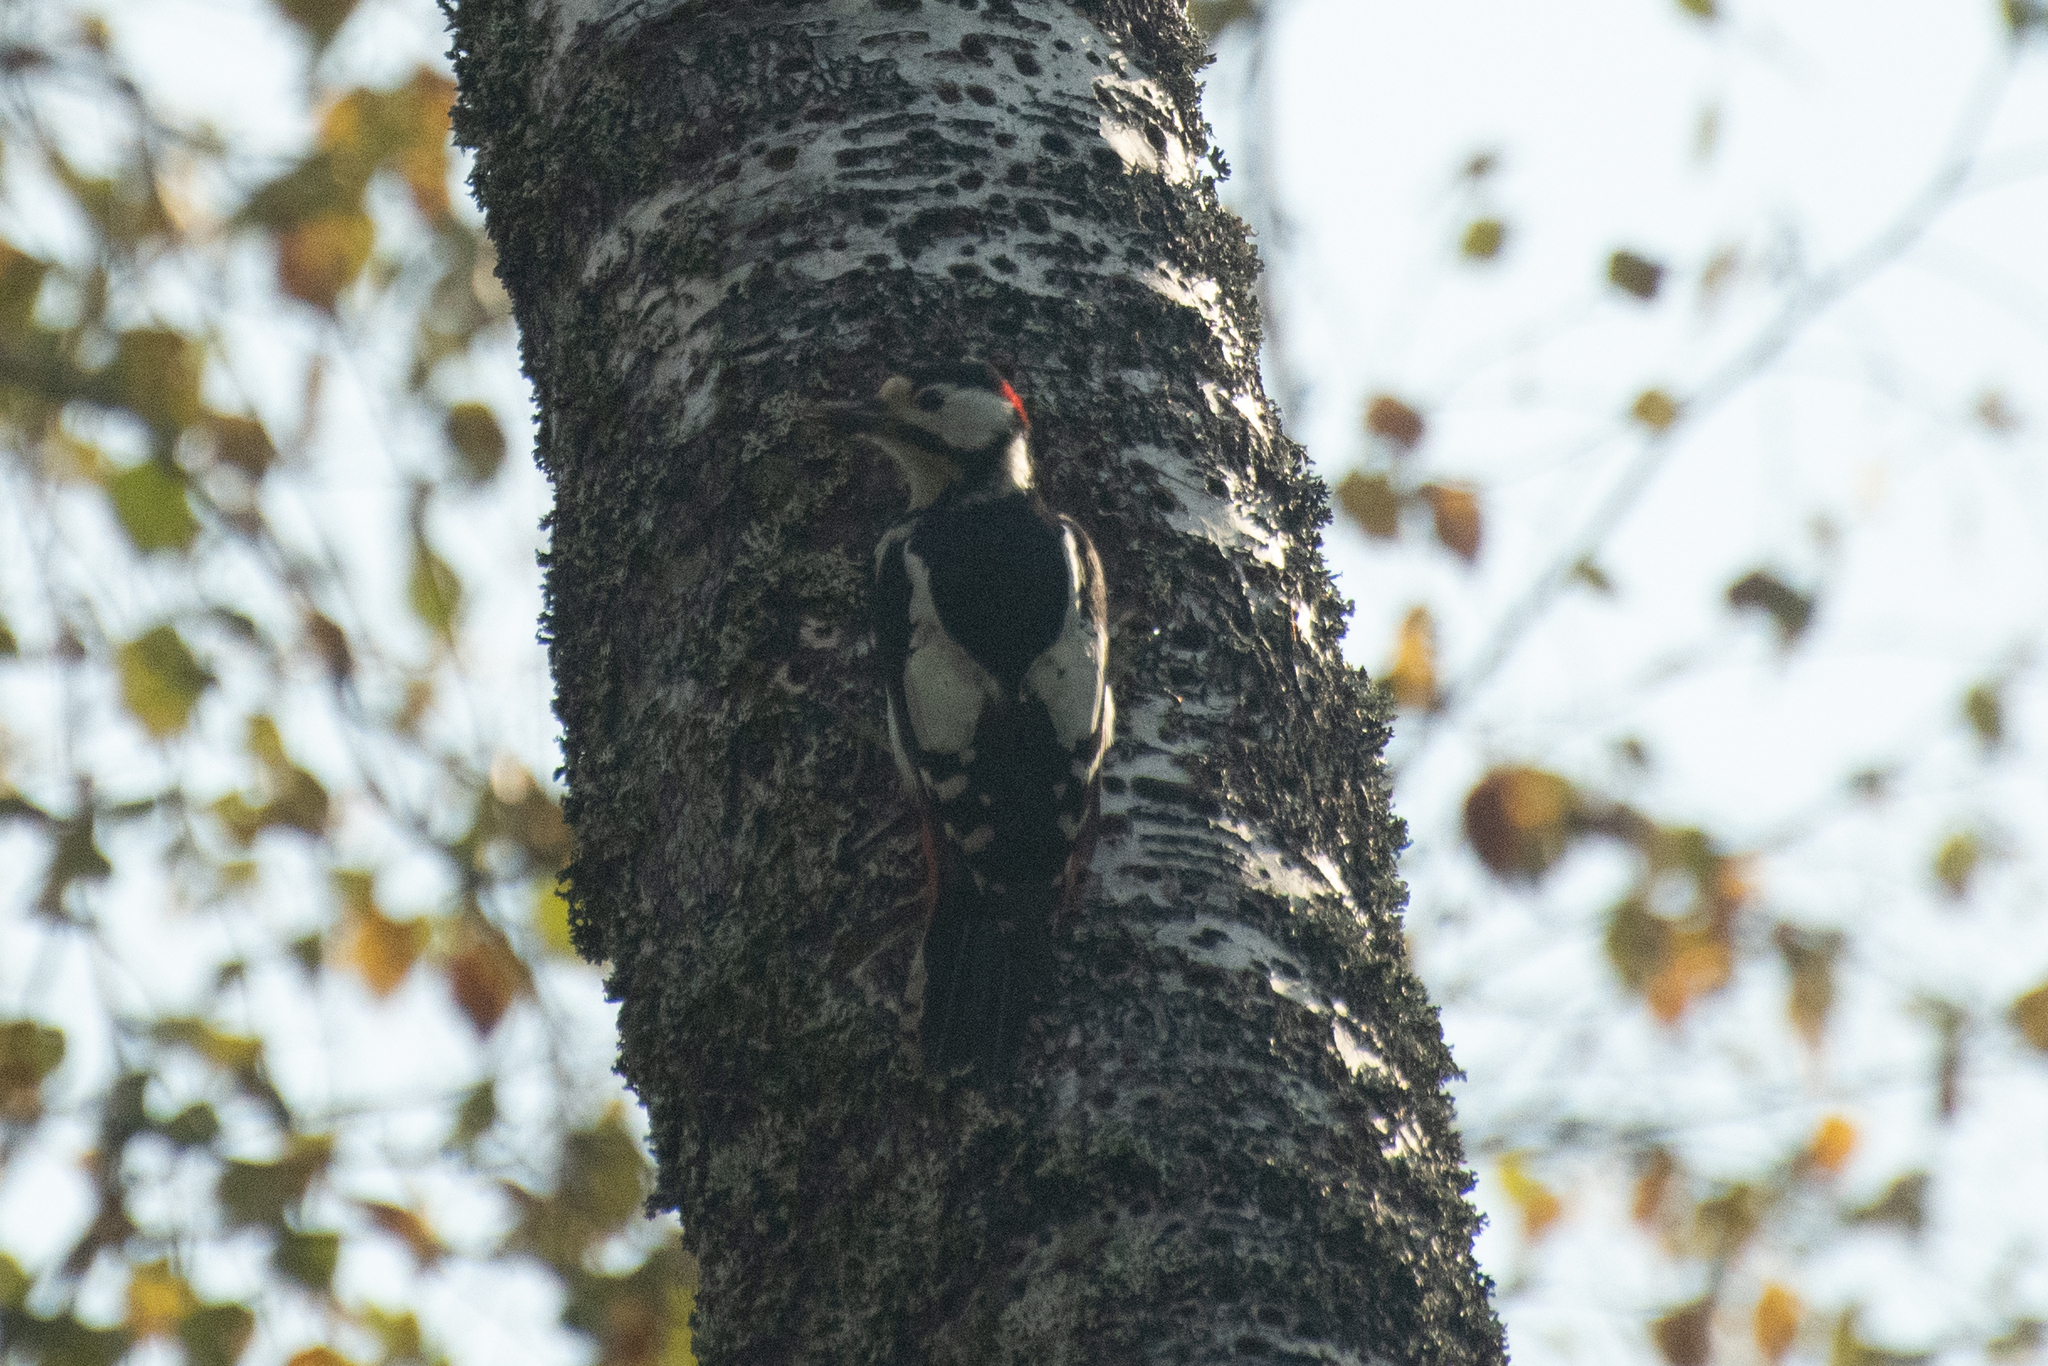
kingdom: Animalia
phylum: Chordata
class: Aves
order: Piciformes
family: Picidae
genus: Dendrocopos
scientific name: Dendrocopos major
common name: Great spotted woodpecker
